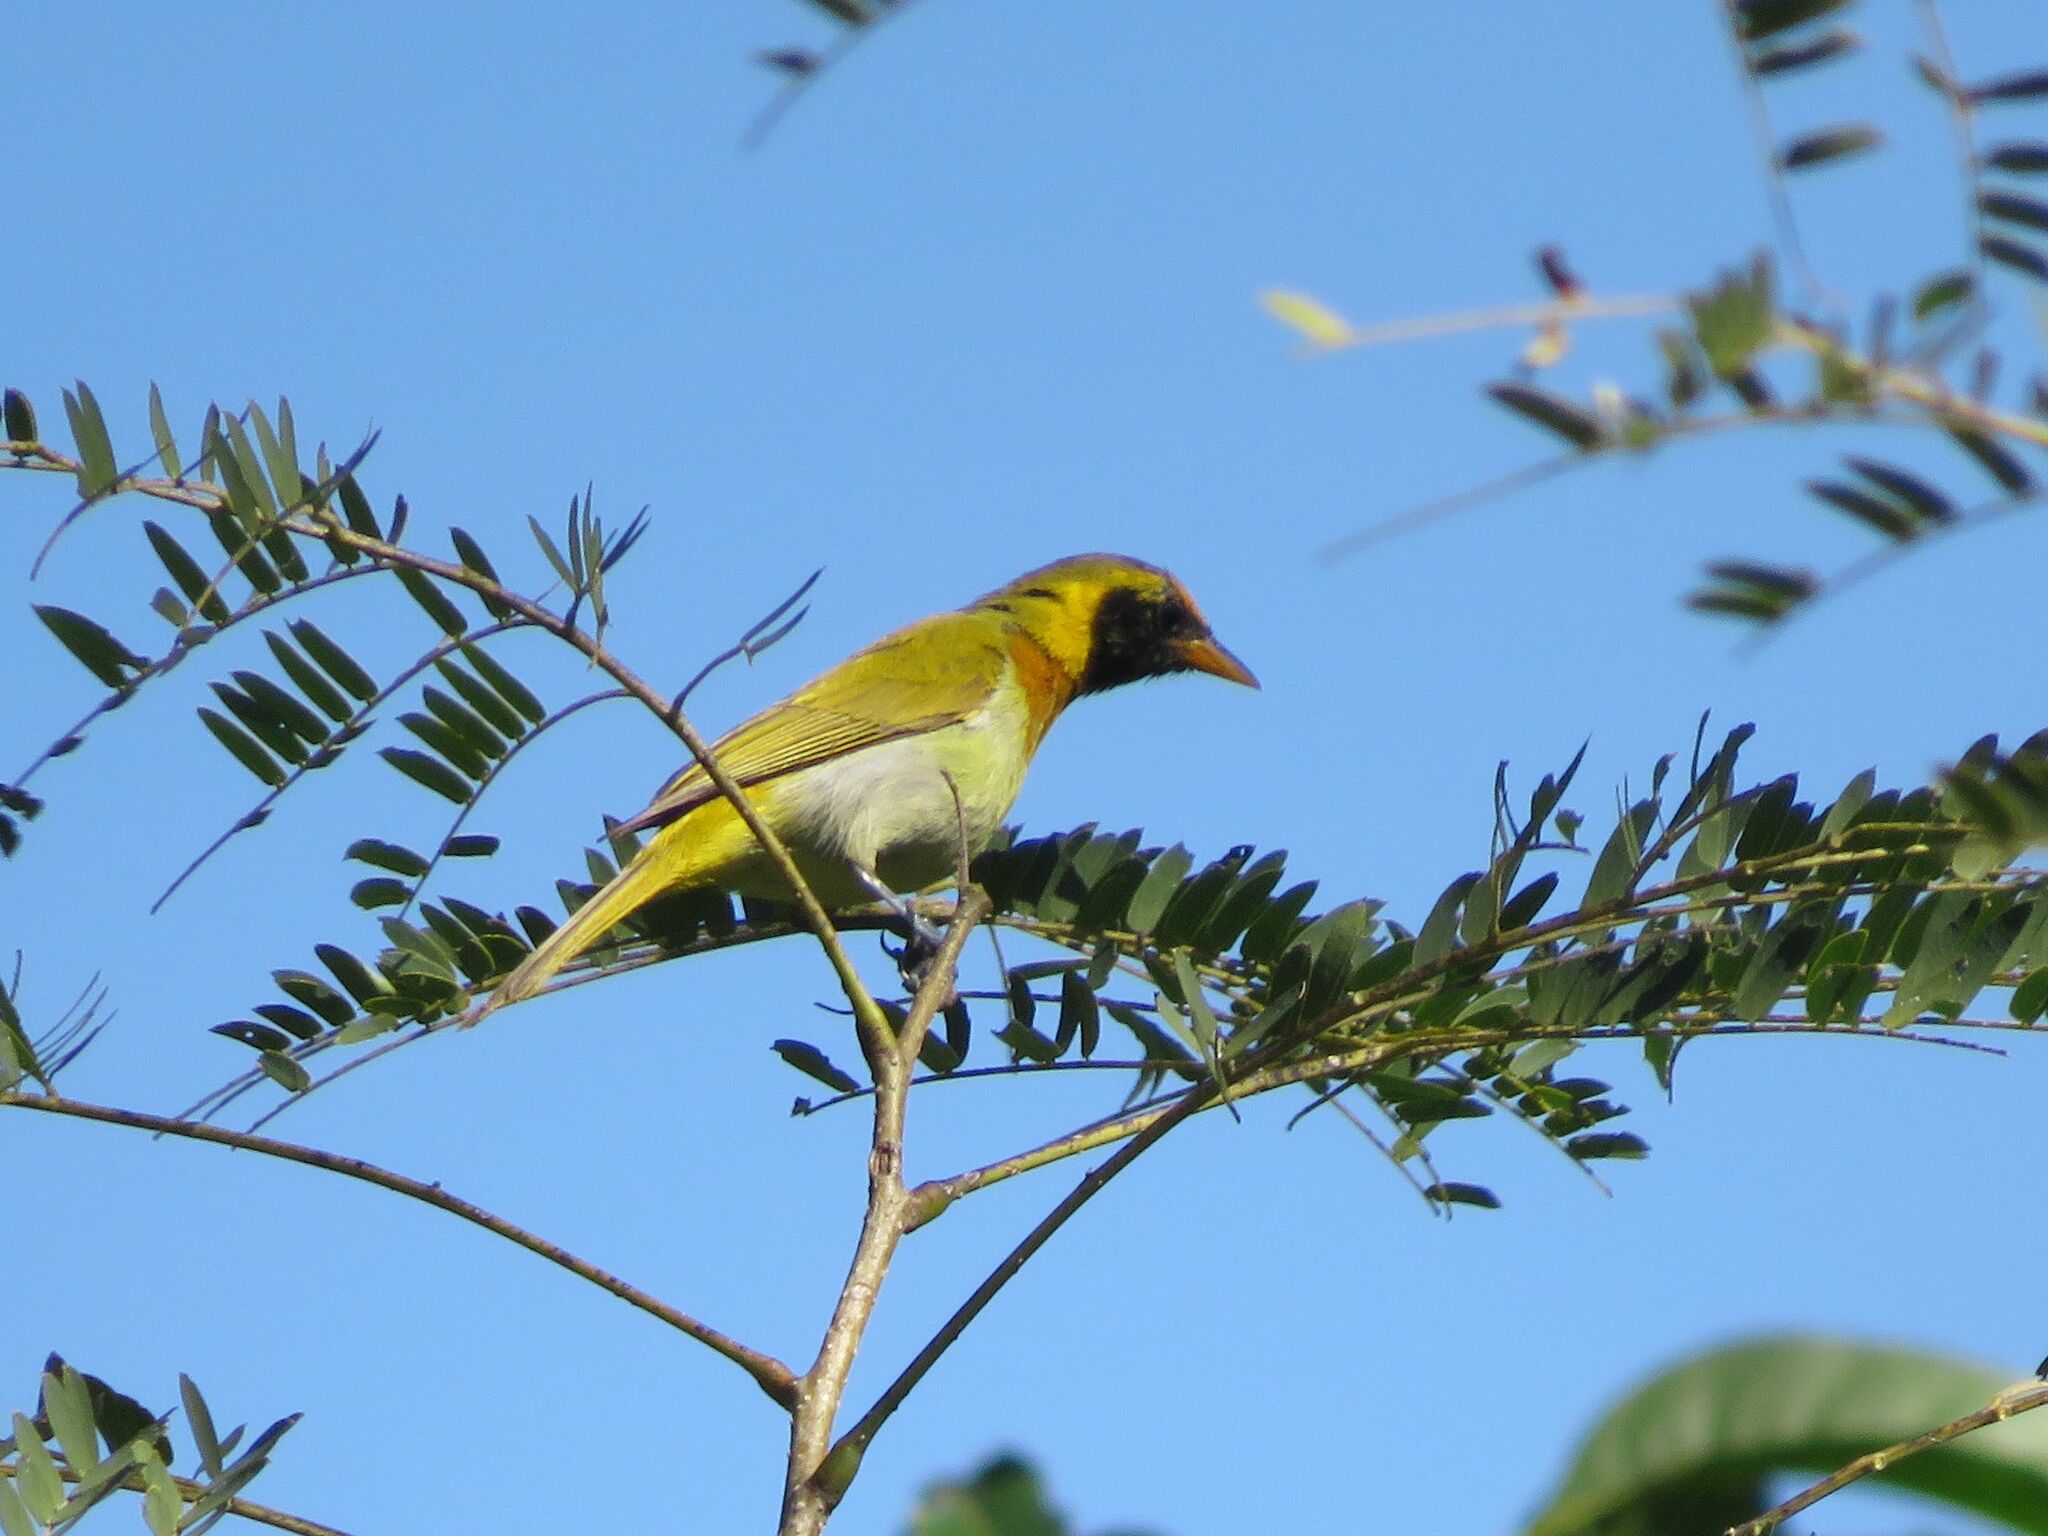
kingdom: Animalia
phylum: Chordata
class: Aves
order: Passeriformes
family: Thraupidae
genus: Hemithraupis
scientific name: Hemithraupis guira
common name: Guira tanager
